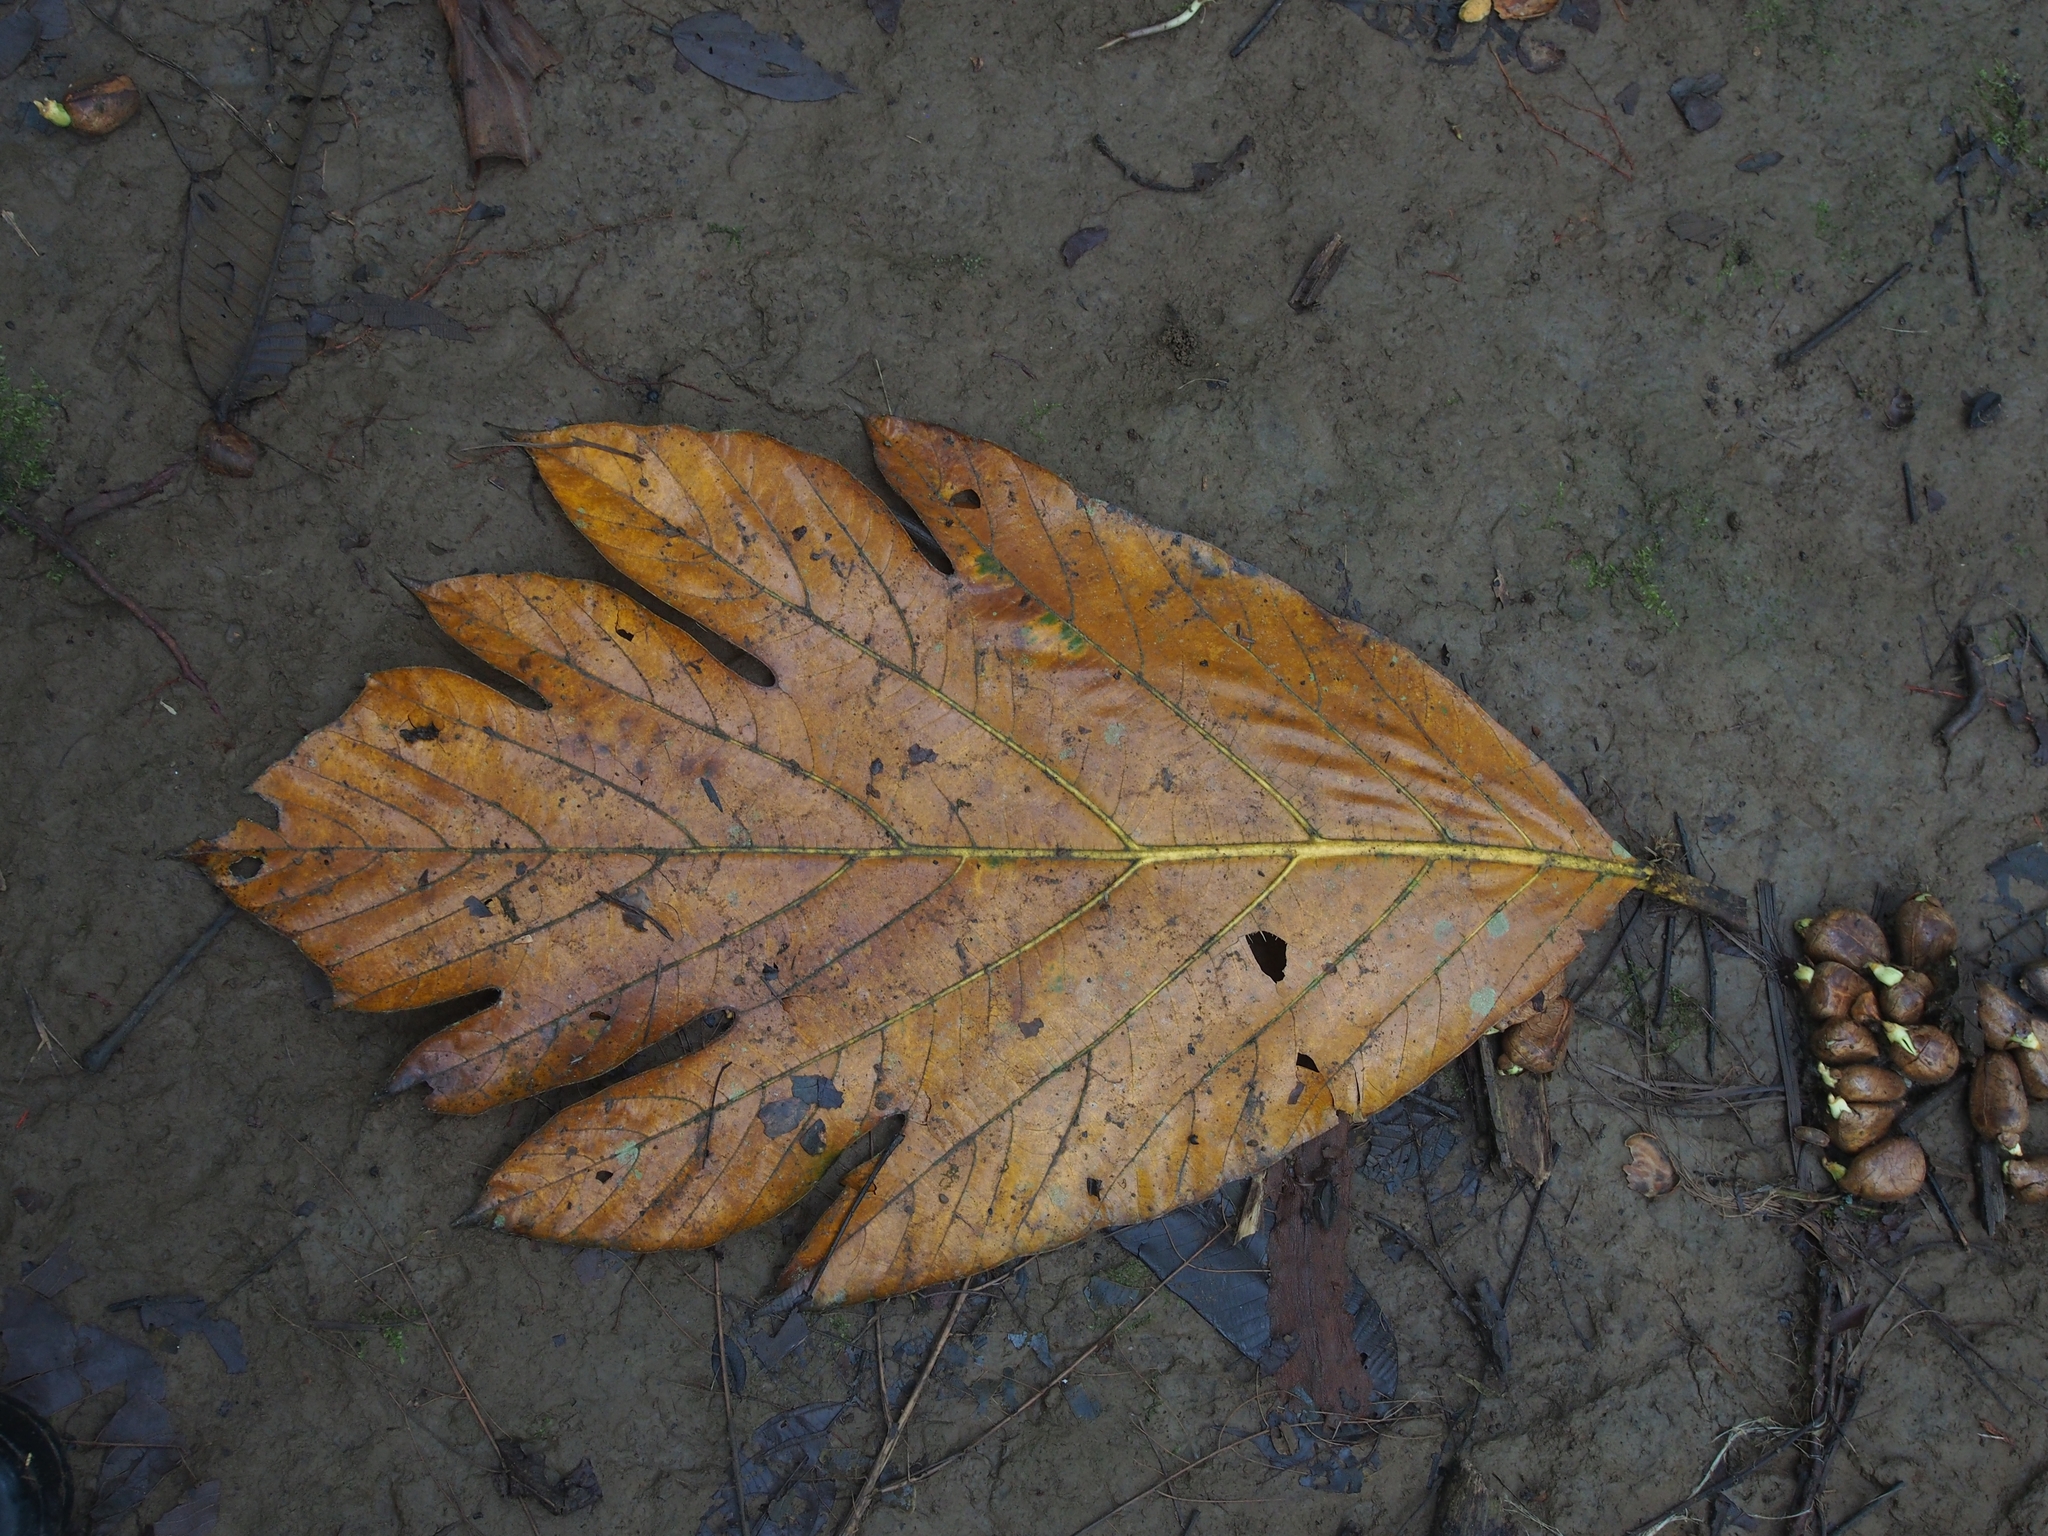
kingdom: Plantae
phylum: Tracheophyta
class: Magnoliopsida
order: Rosales
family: Moraceae
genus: Artocarpus
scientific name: Artocarpus altilis
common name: Breadfruit
